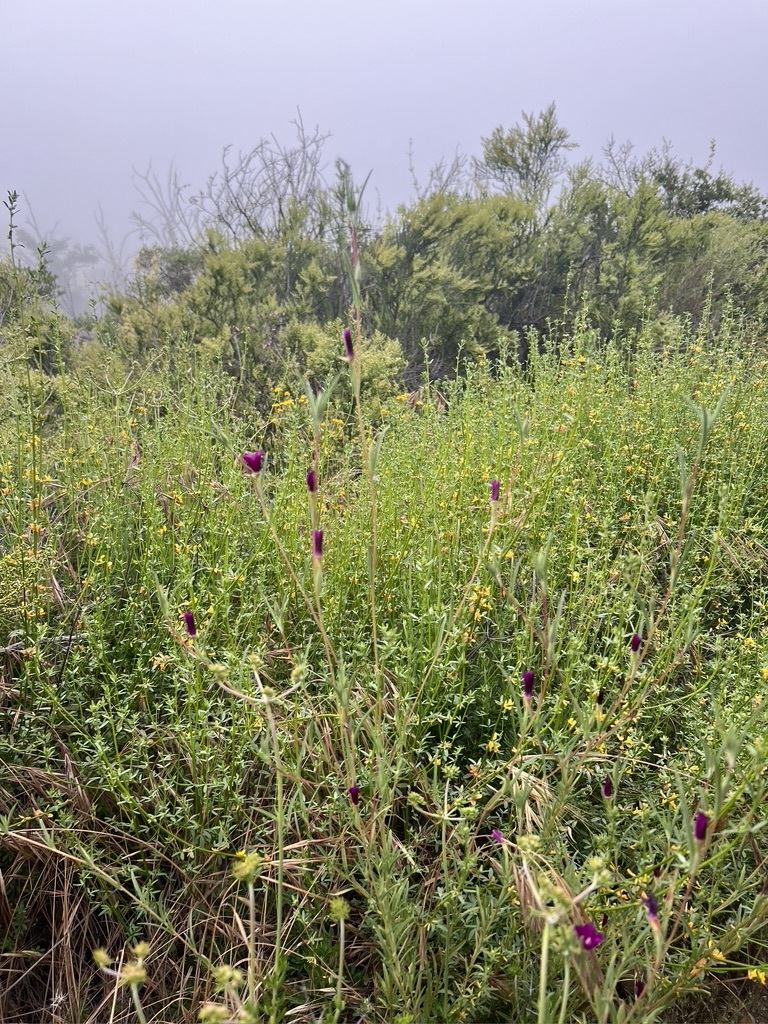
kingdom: Plantae
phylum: Tracheophyta
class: Magnoliopsida
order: Myrtales
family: Onagraceae
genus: Clarkia
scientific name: Clarkia purpurea
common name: Purple clarkia
